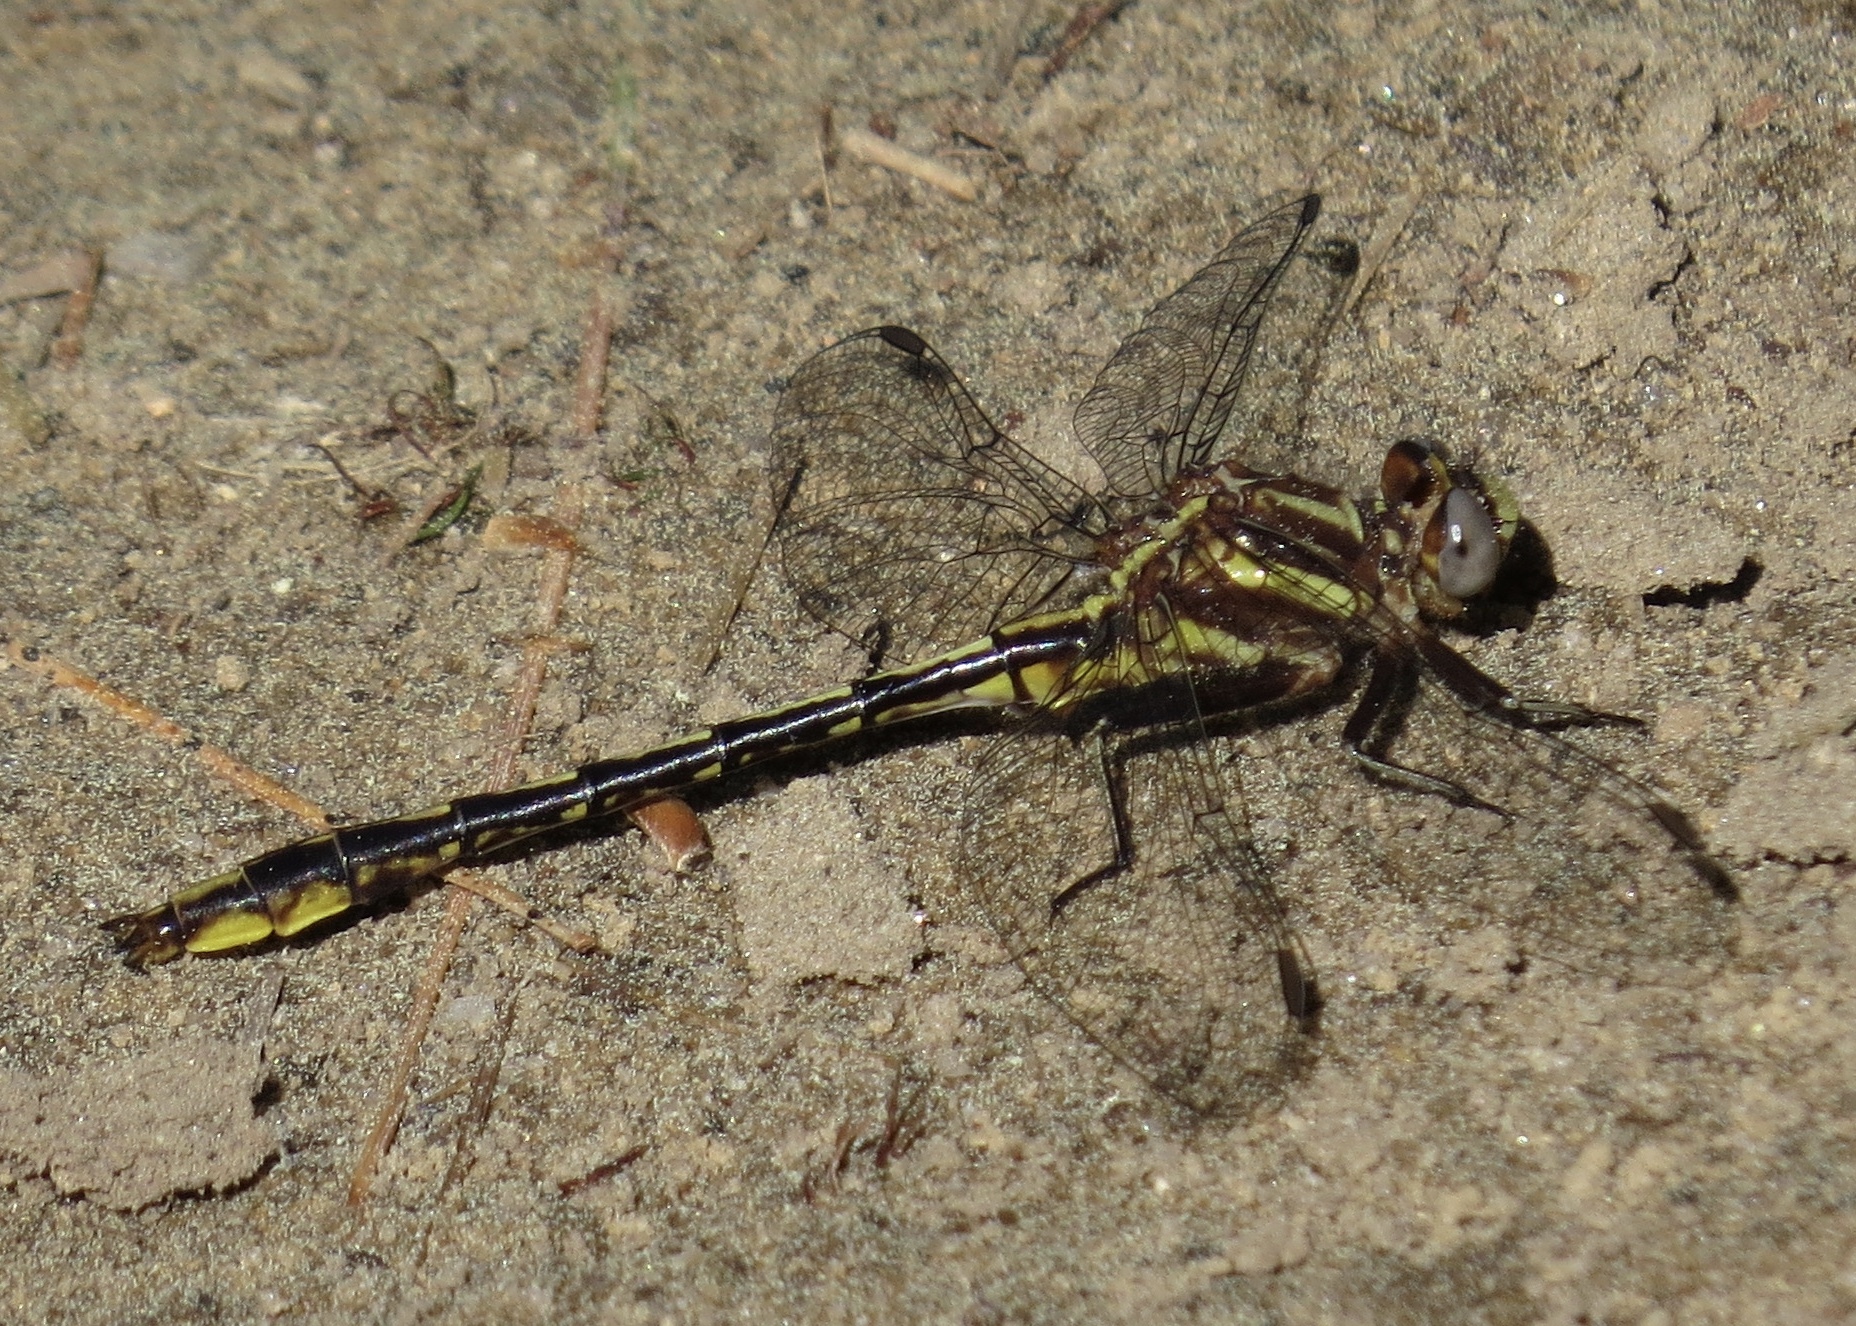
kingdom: Animalia
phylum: Arthropoda
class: Insecta
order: Odonata
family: Gomphidae
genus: Phanogomphus
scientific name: Phanogomphus exilis
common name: Lancet clubtail
